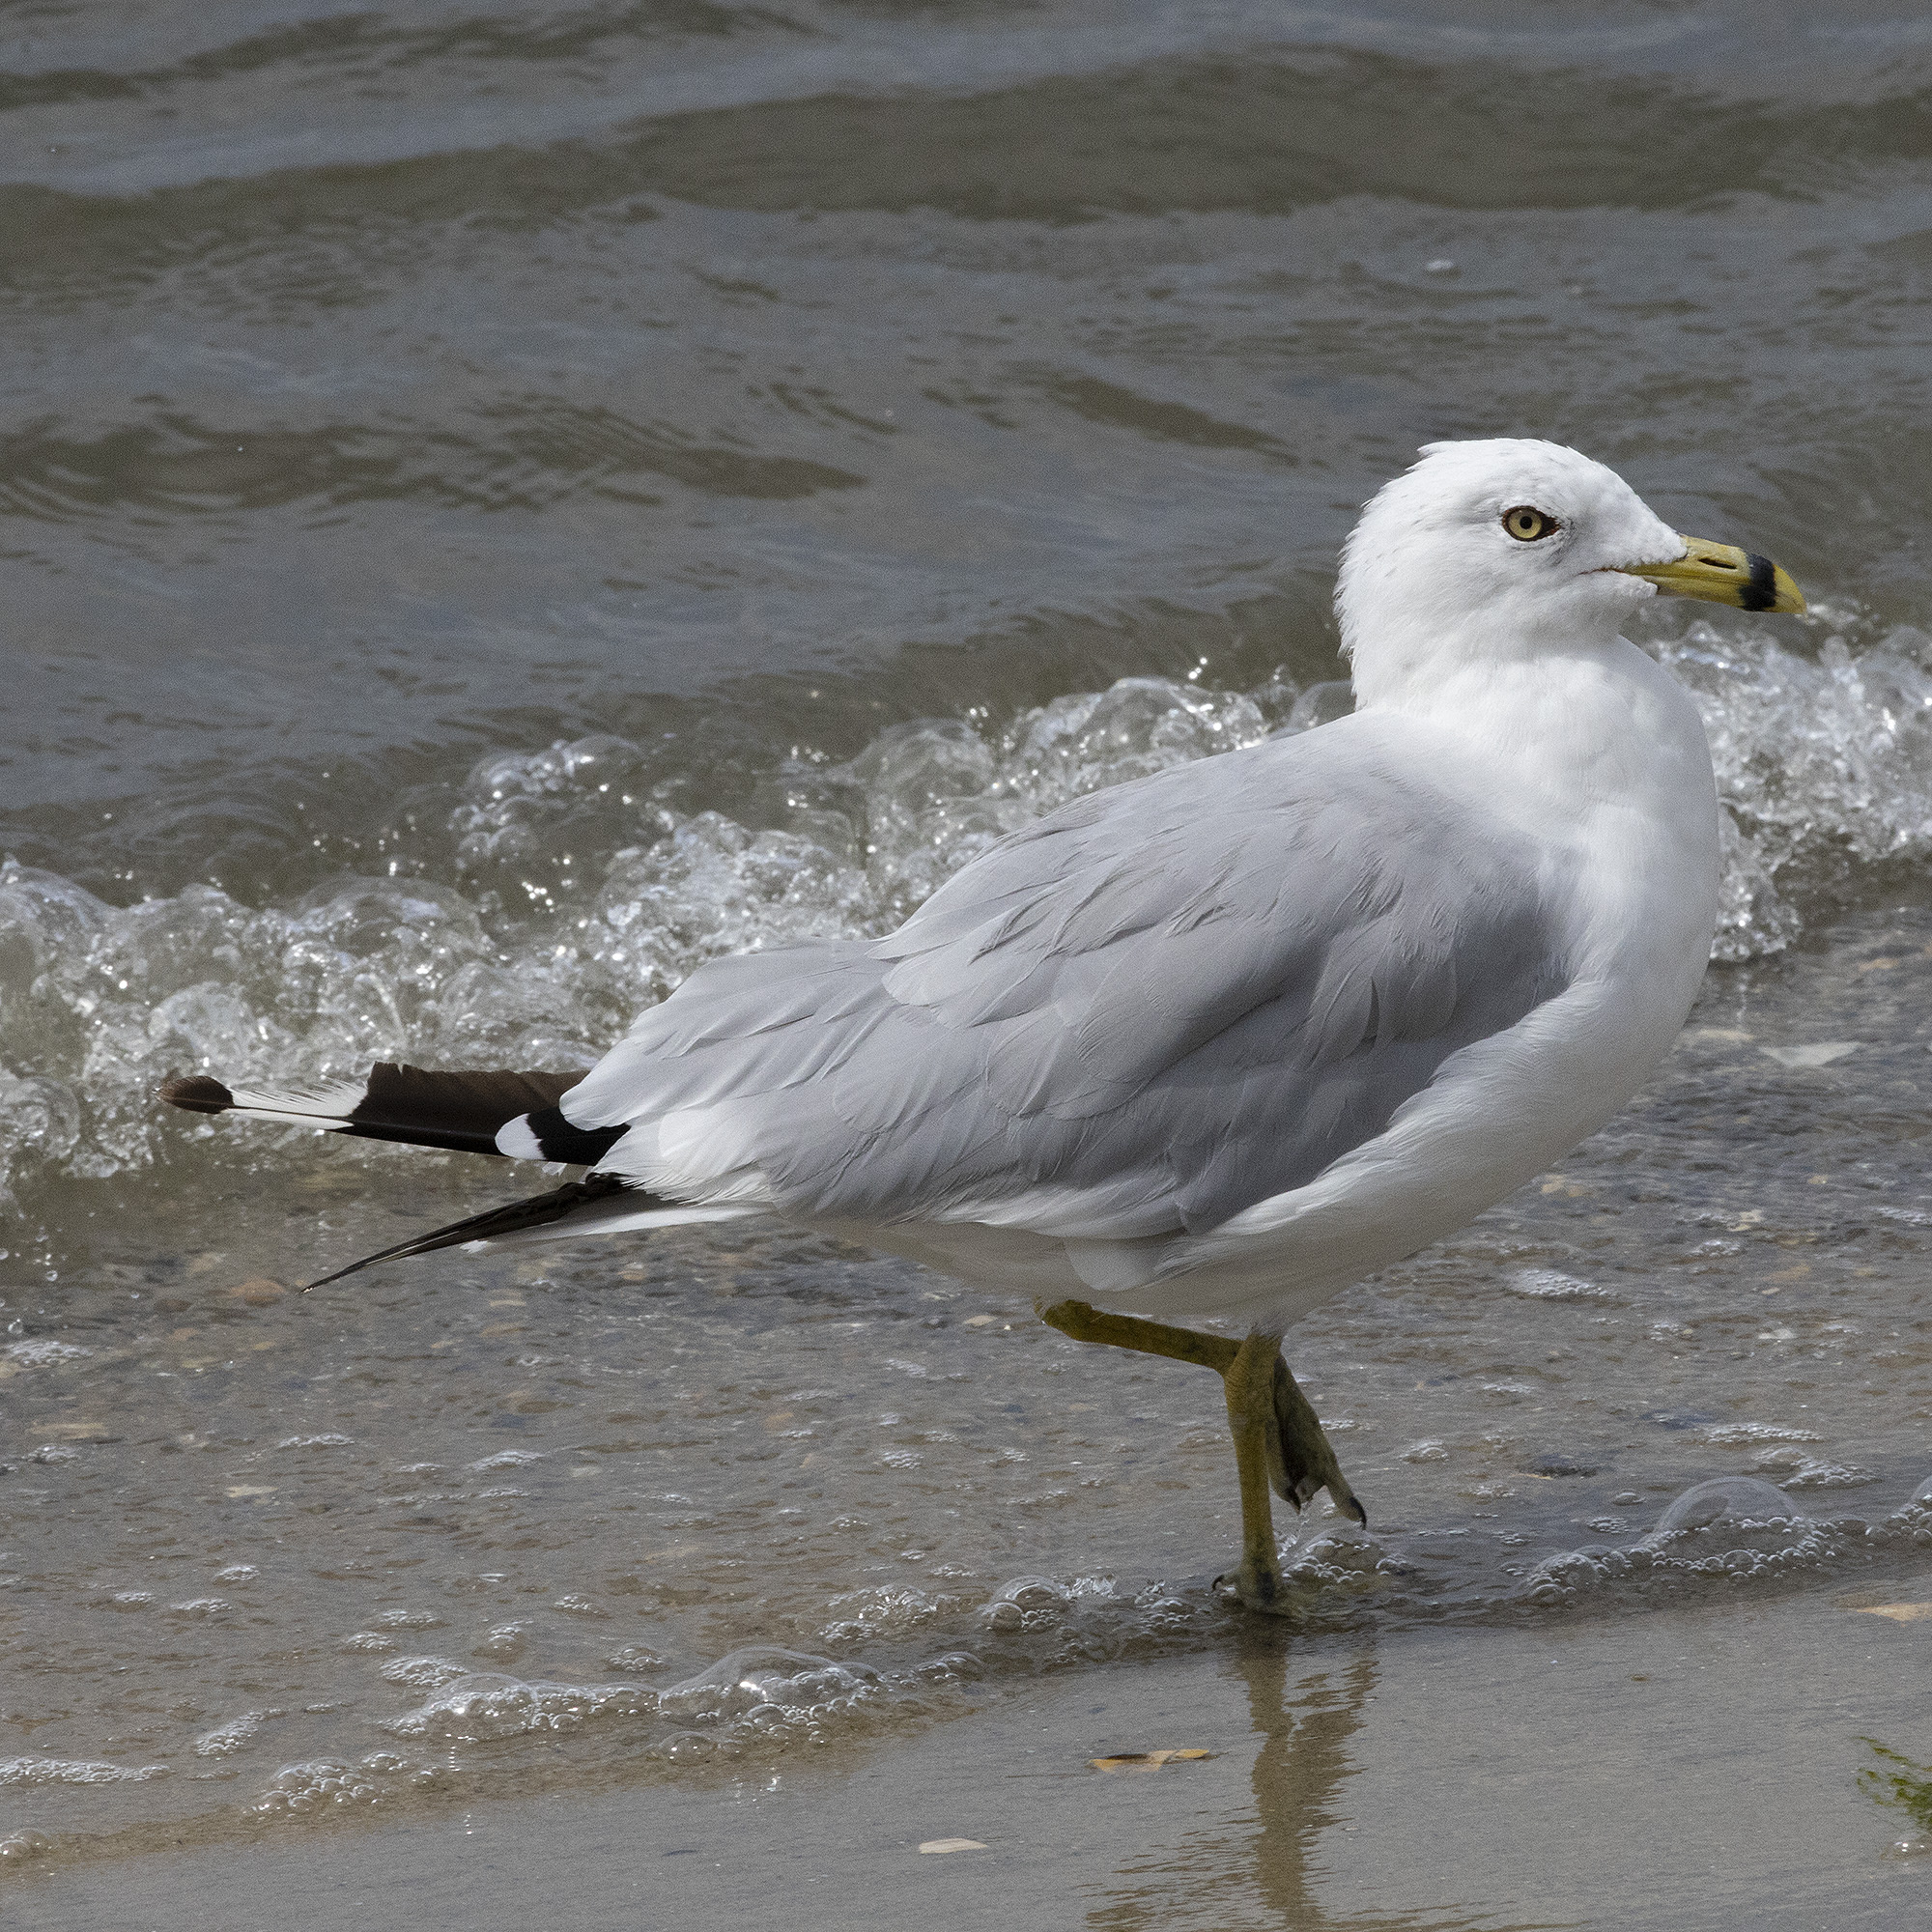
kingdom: Animalia
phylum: Chordata
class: Aves
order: Charadriiformes
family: Laridae
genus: Larus
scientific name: Larus delawarensis
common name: Ring-billed gull
